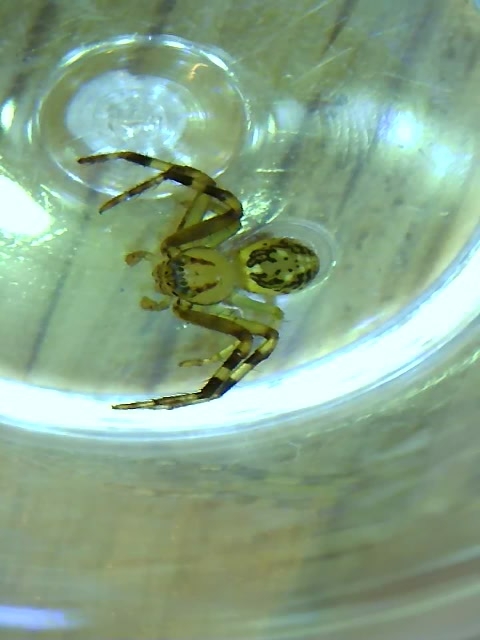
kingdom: Animalia
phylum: Arthropoda
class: Arachnida
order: Araneae
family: Thomisidae
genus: Diaea
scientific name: Diaea ambara
